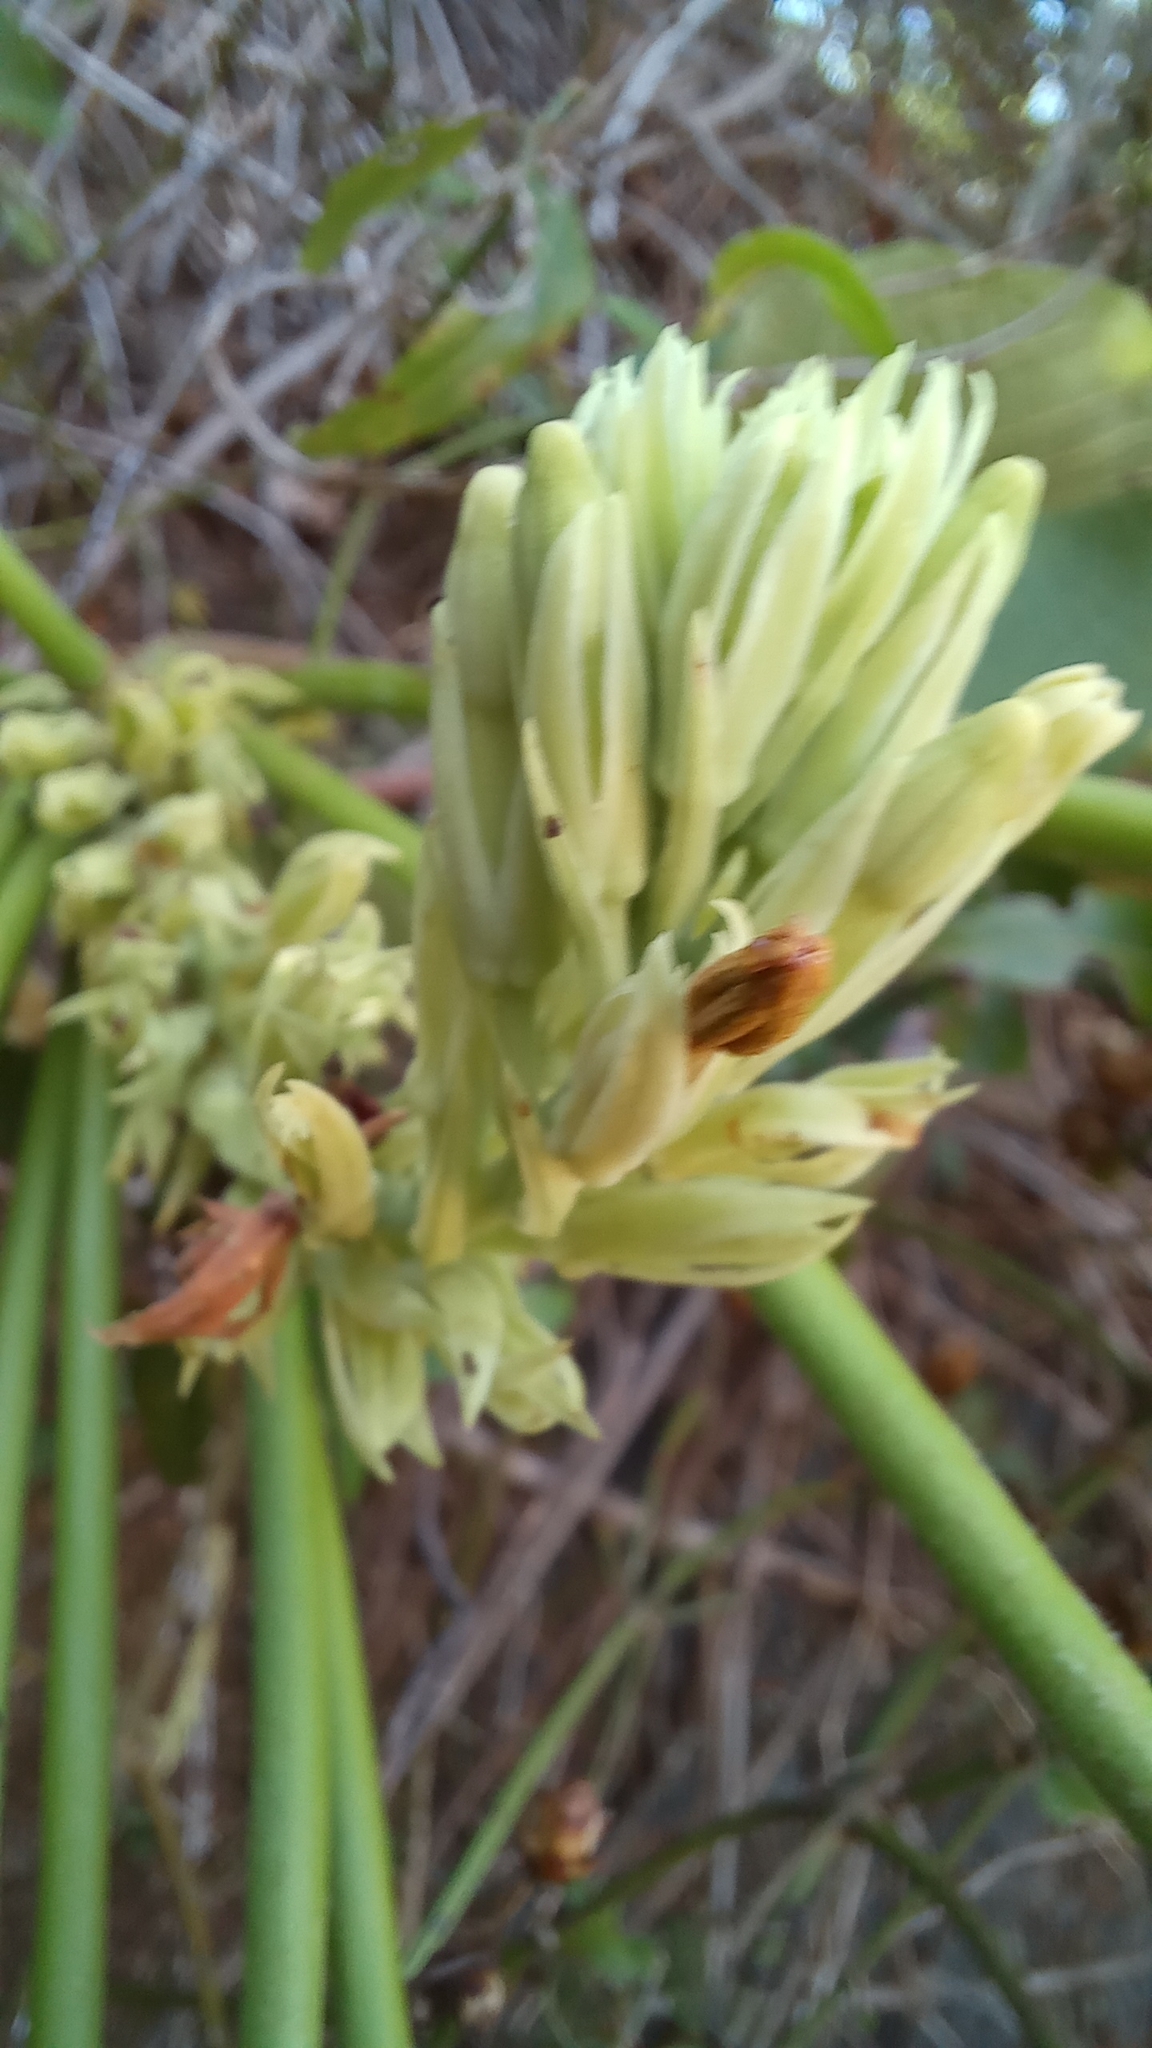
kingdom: Plantae
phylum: Tracheophyta
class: Magnoliopsida
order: Gentianales
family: Apocynaceae
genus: Mandevilla
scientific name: Mandevilla pentlandiana
